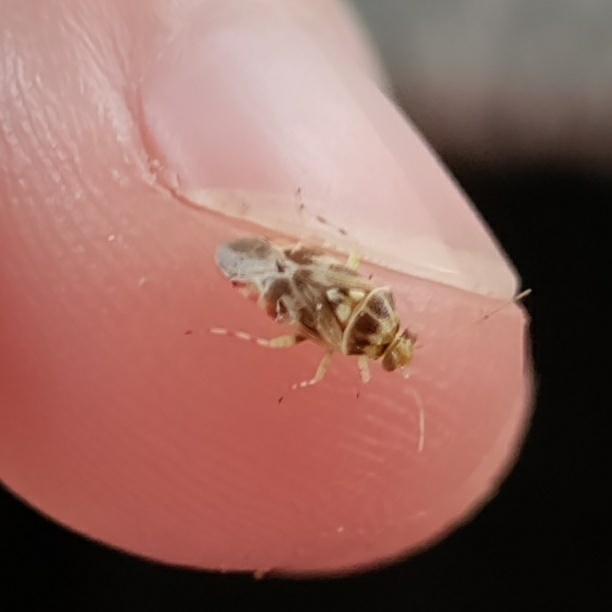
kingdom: Animalia
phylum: Arthropoda
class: Insecta
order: Hemiptera
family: Miridae
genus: Tropidosteptes
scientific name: Tropidosteptes quercicola
